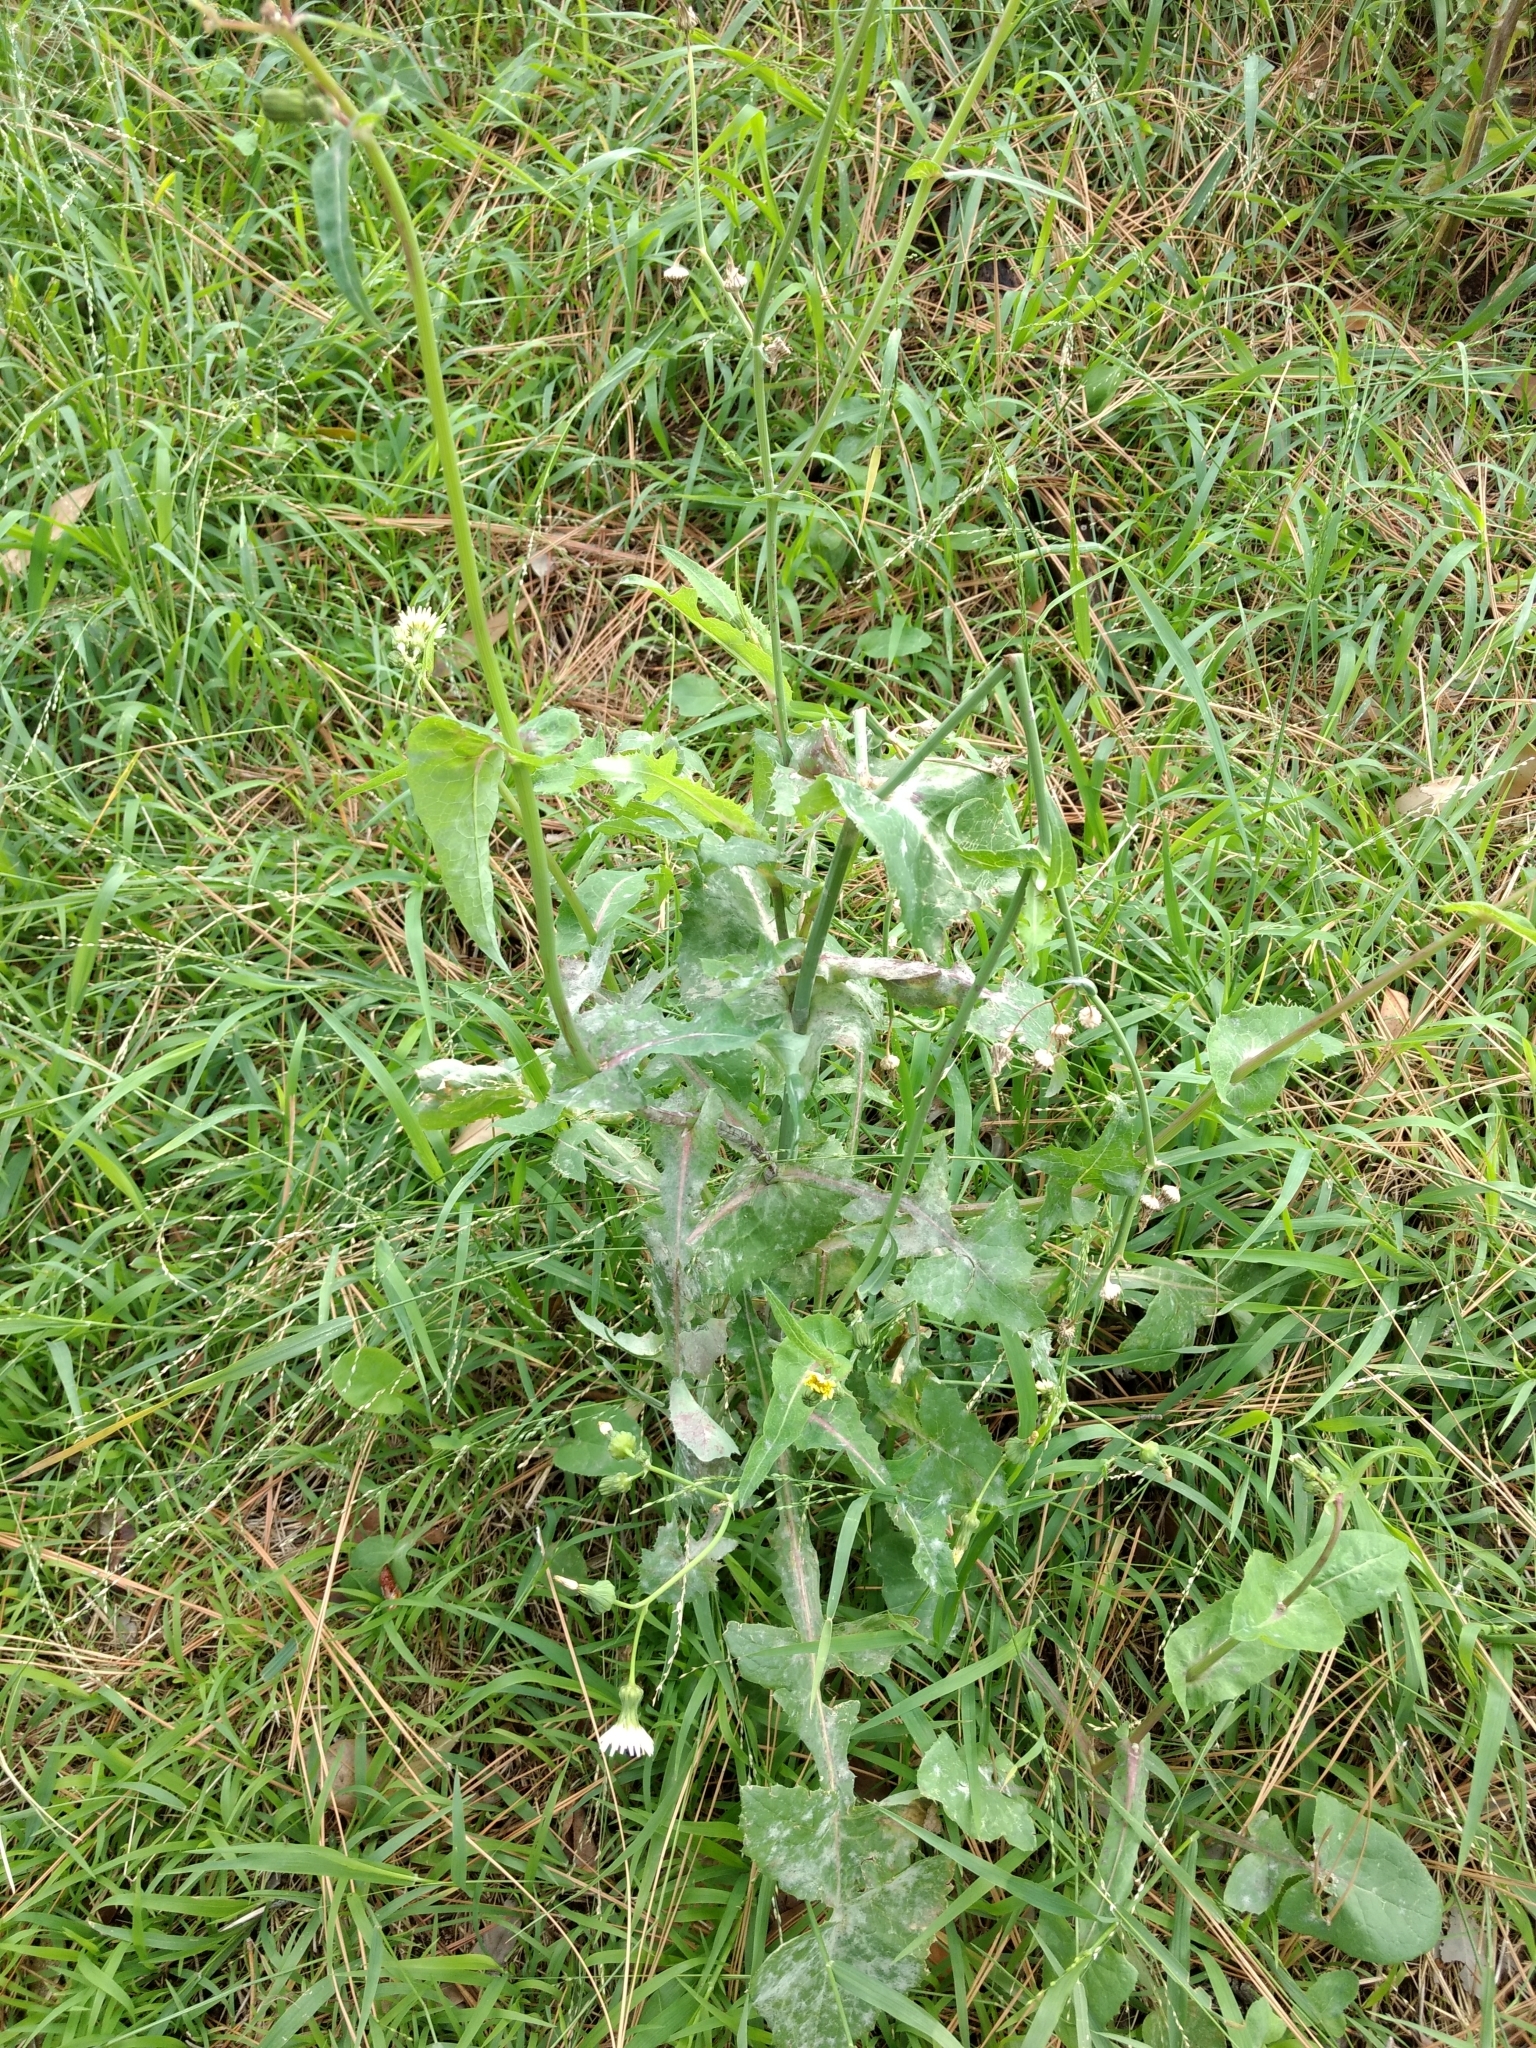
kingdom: Plantae
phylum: Tracheophyta
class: Magnoliopsida
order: Asterales
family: Asteraceae
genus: Sonchus
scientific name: Sonchus oleraceus
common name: Common sowthistle
